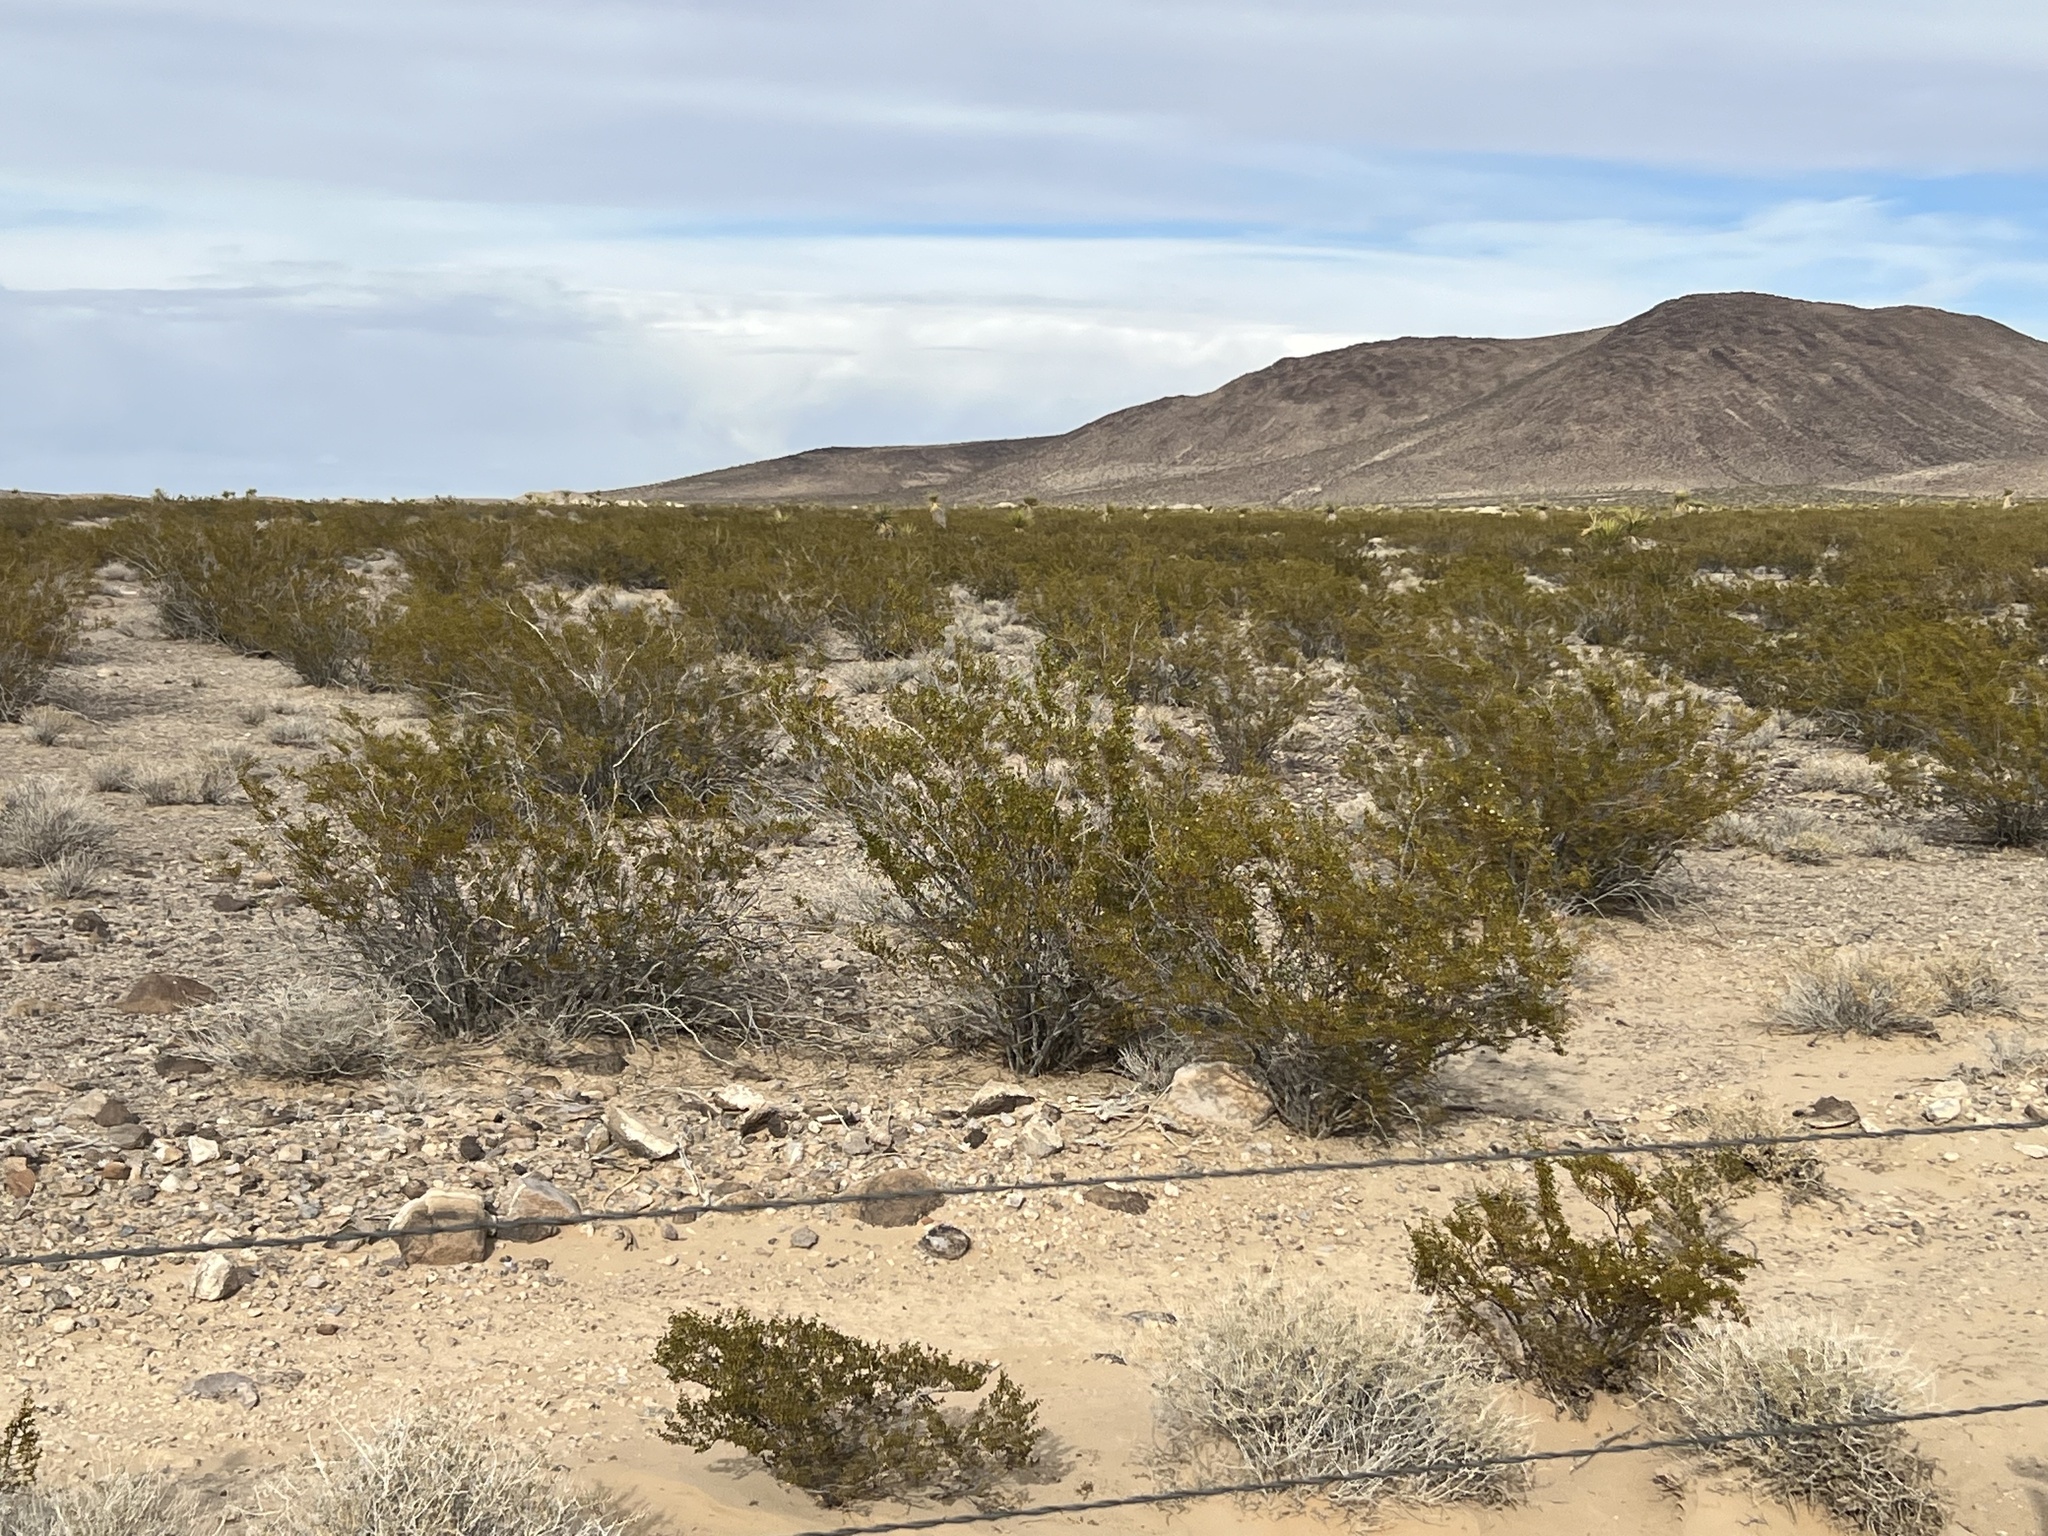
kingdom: Plantae
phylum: Tracheophyta
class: Magnoliopsida
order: Zygophyllales
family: Zygophyllaceae
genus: Larrea
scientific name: Larrea tridentata
